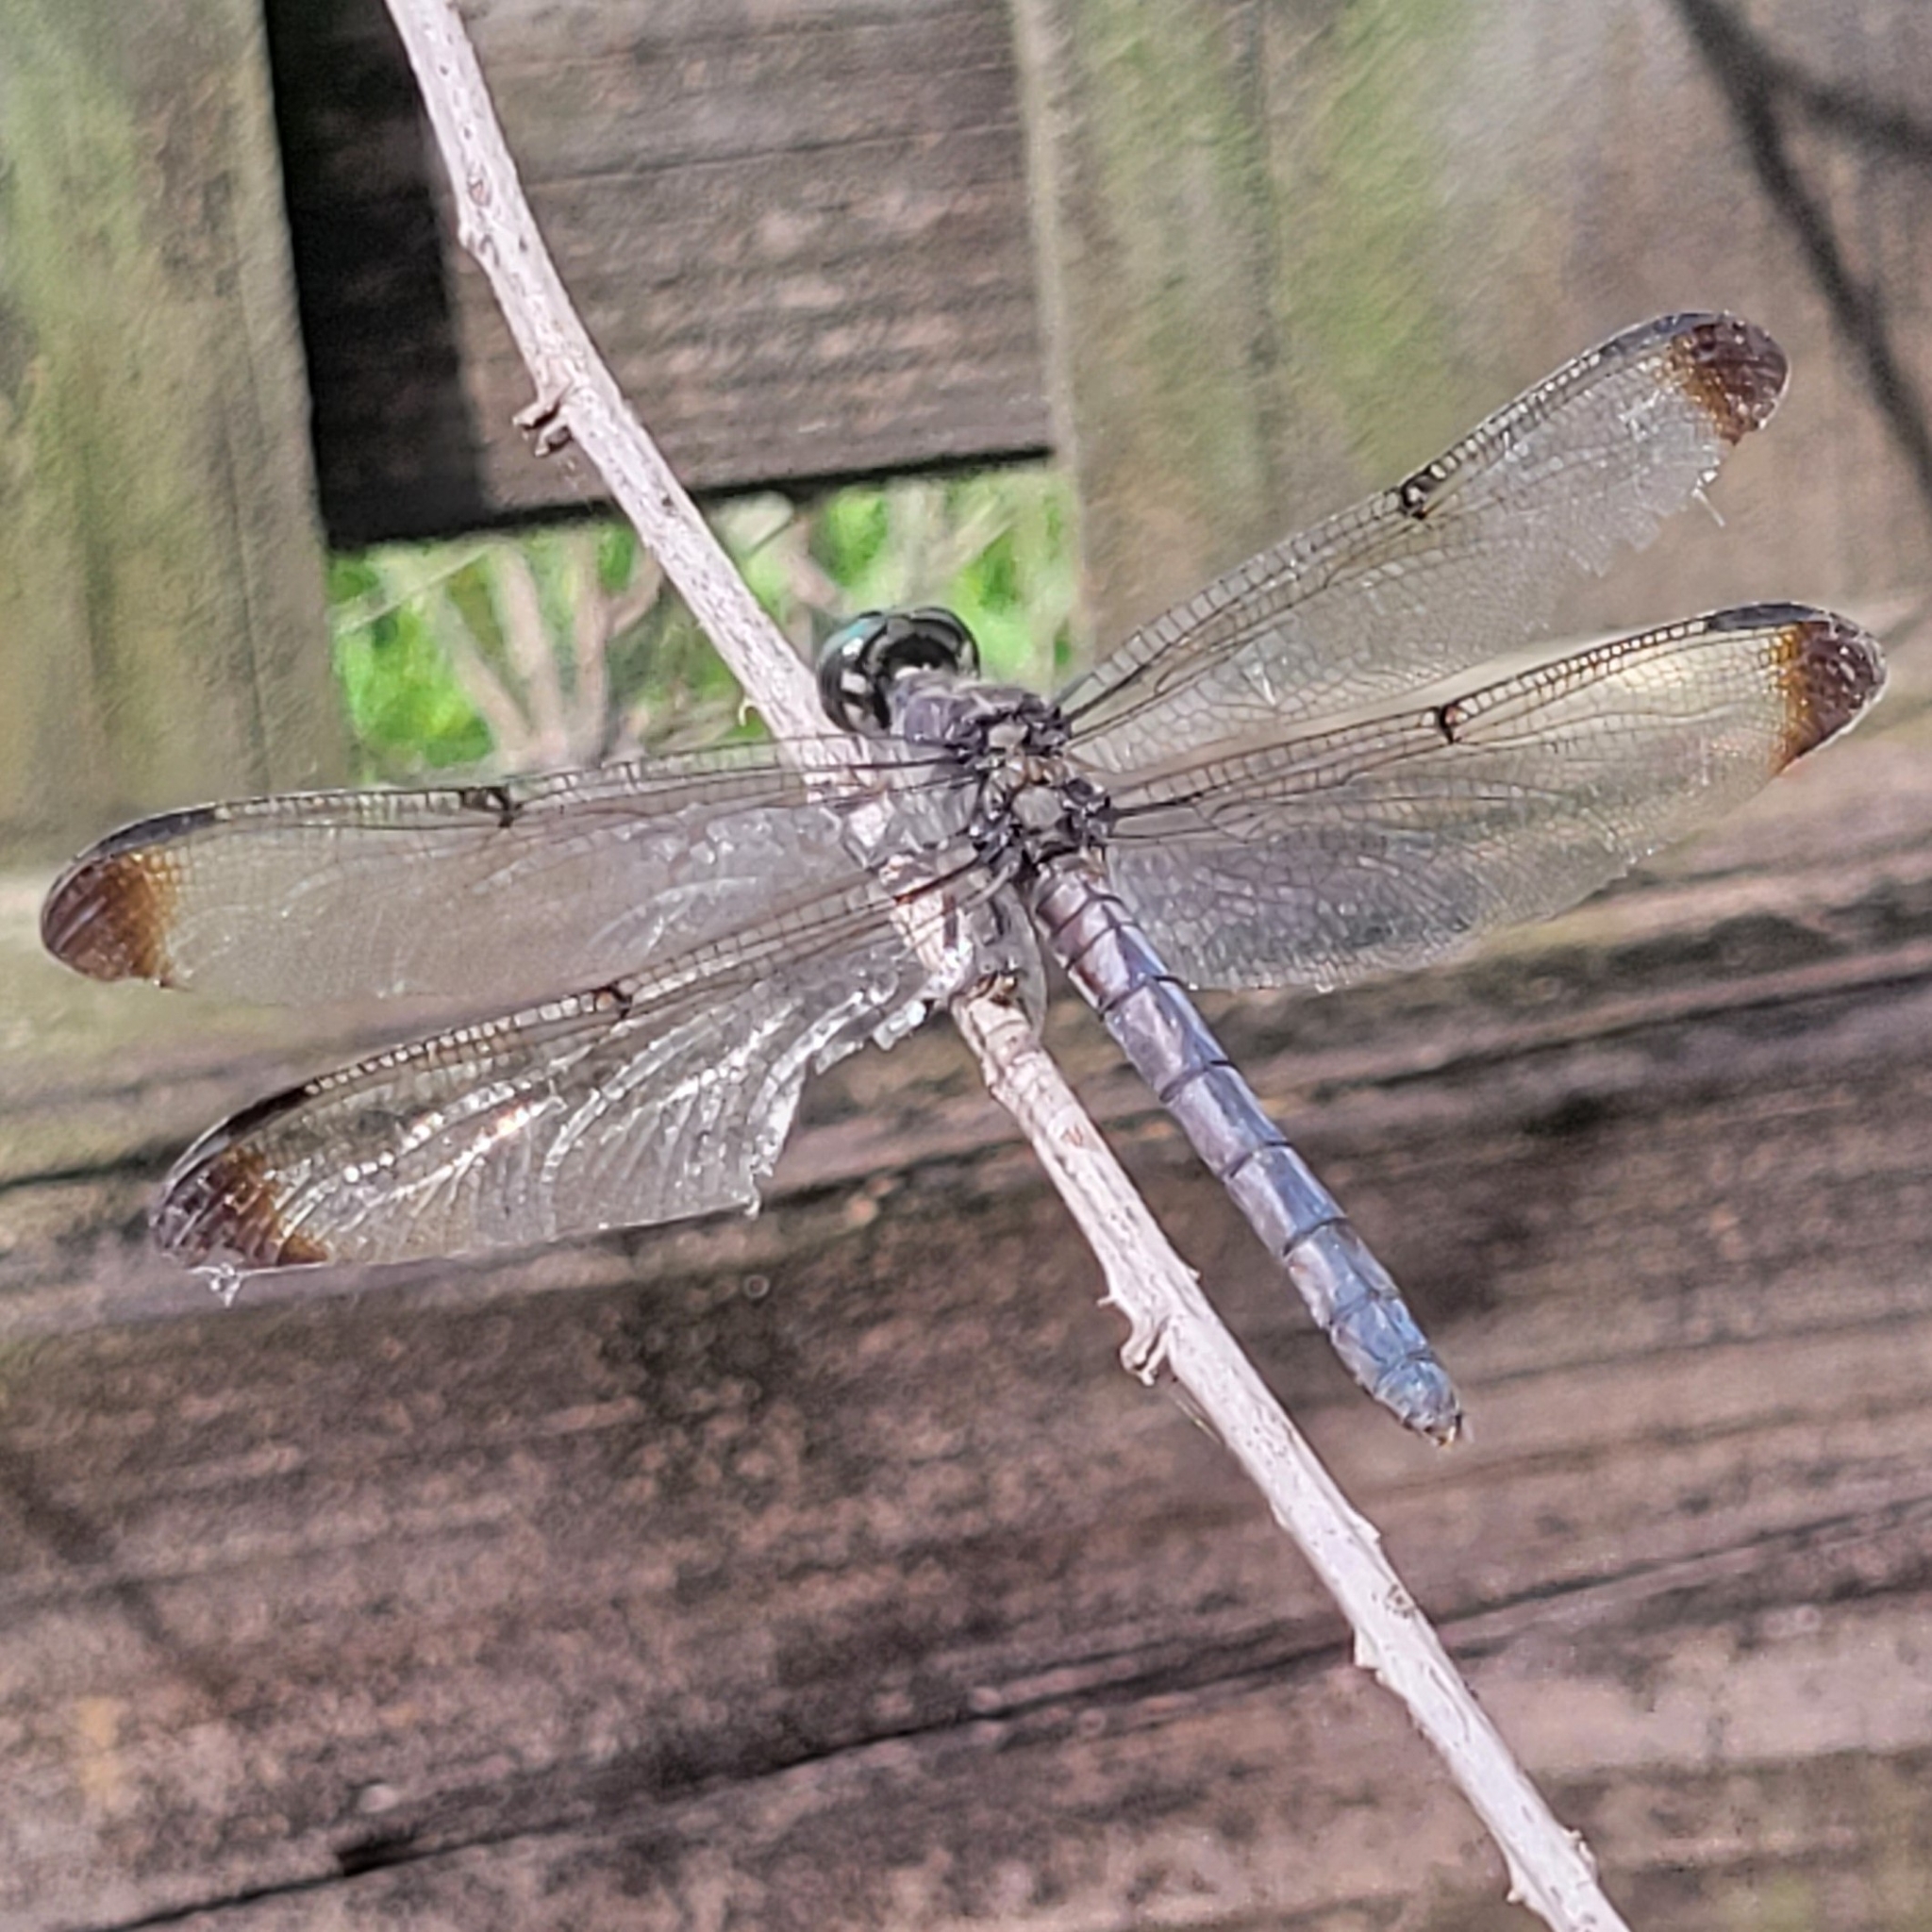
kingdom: Animalia
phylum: Arthropoda
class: Insecta
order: Odonata
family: Libellulidae
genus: Libellula
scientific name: Libellula vibrans
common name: Great blue skimmer
